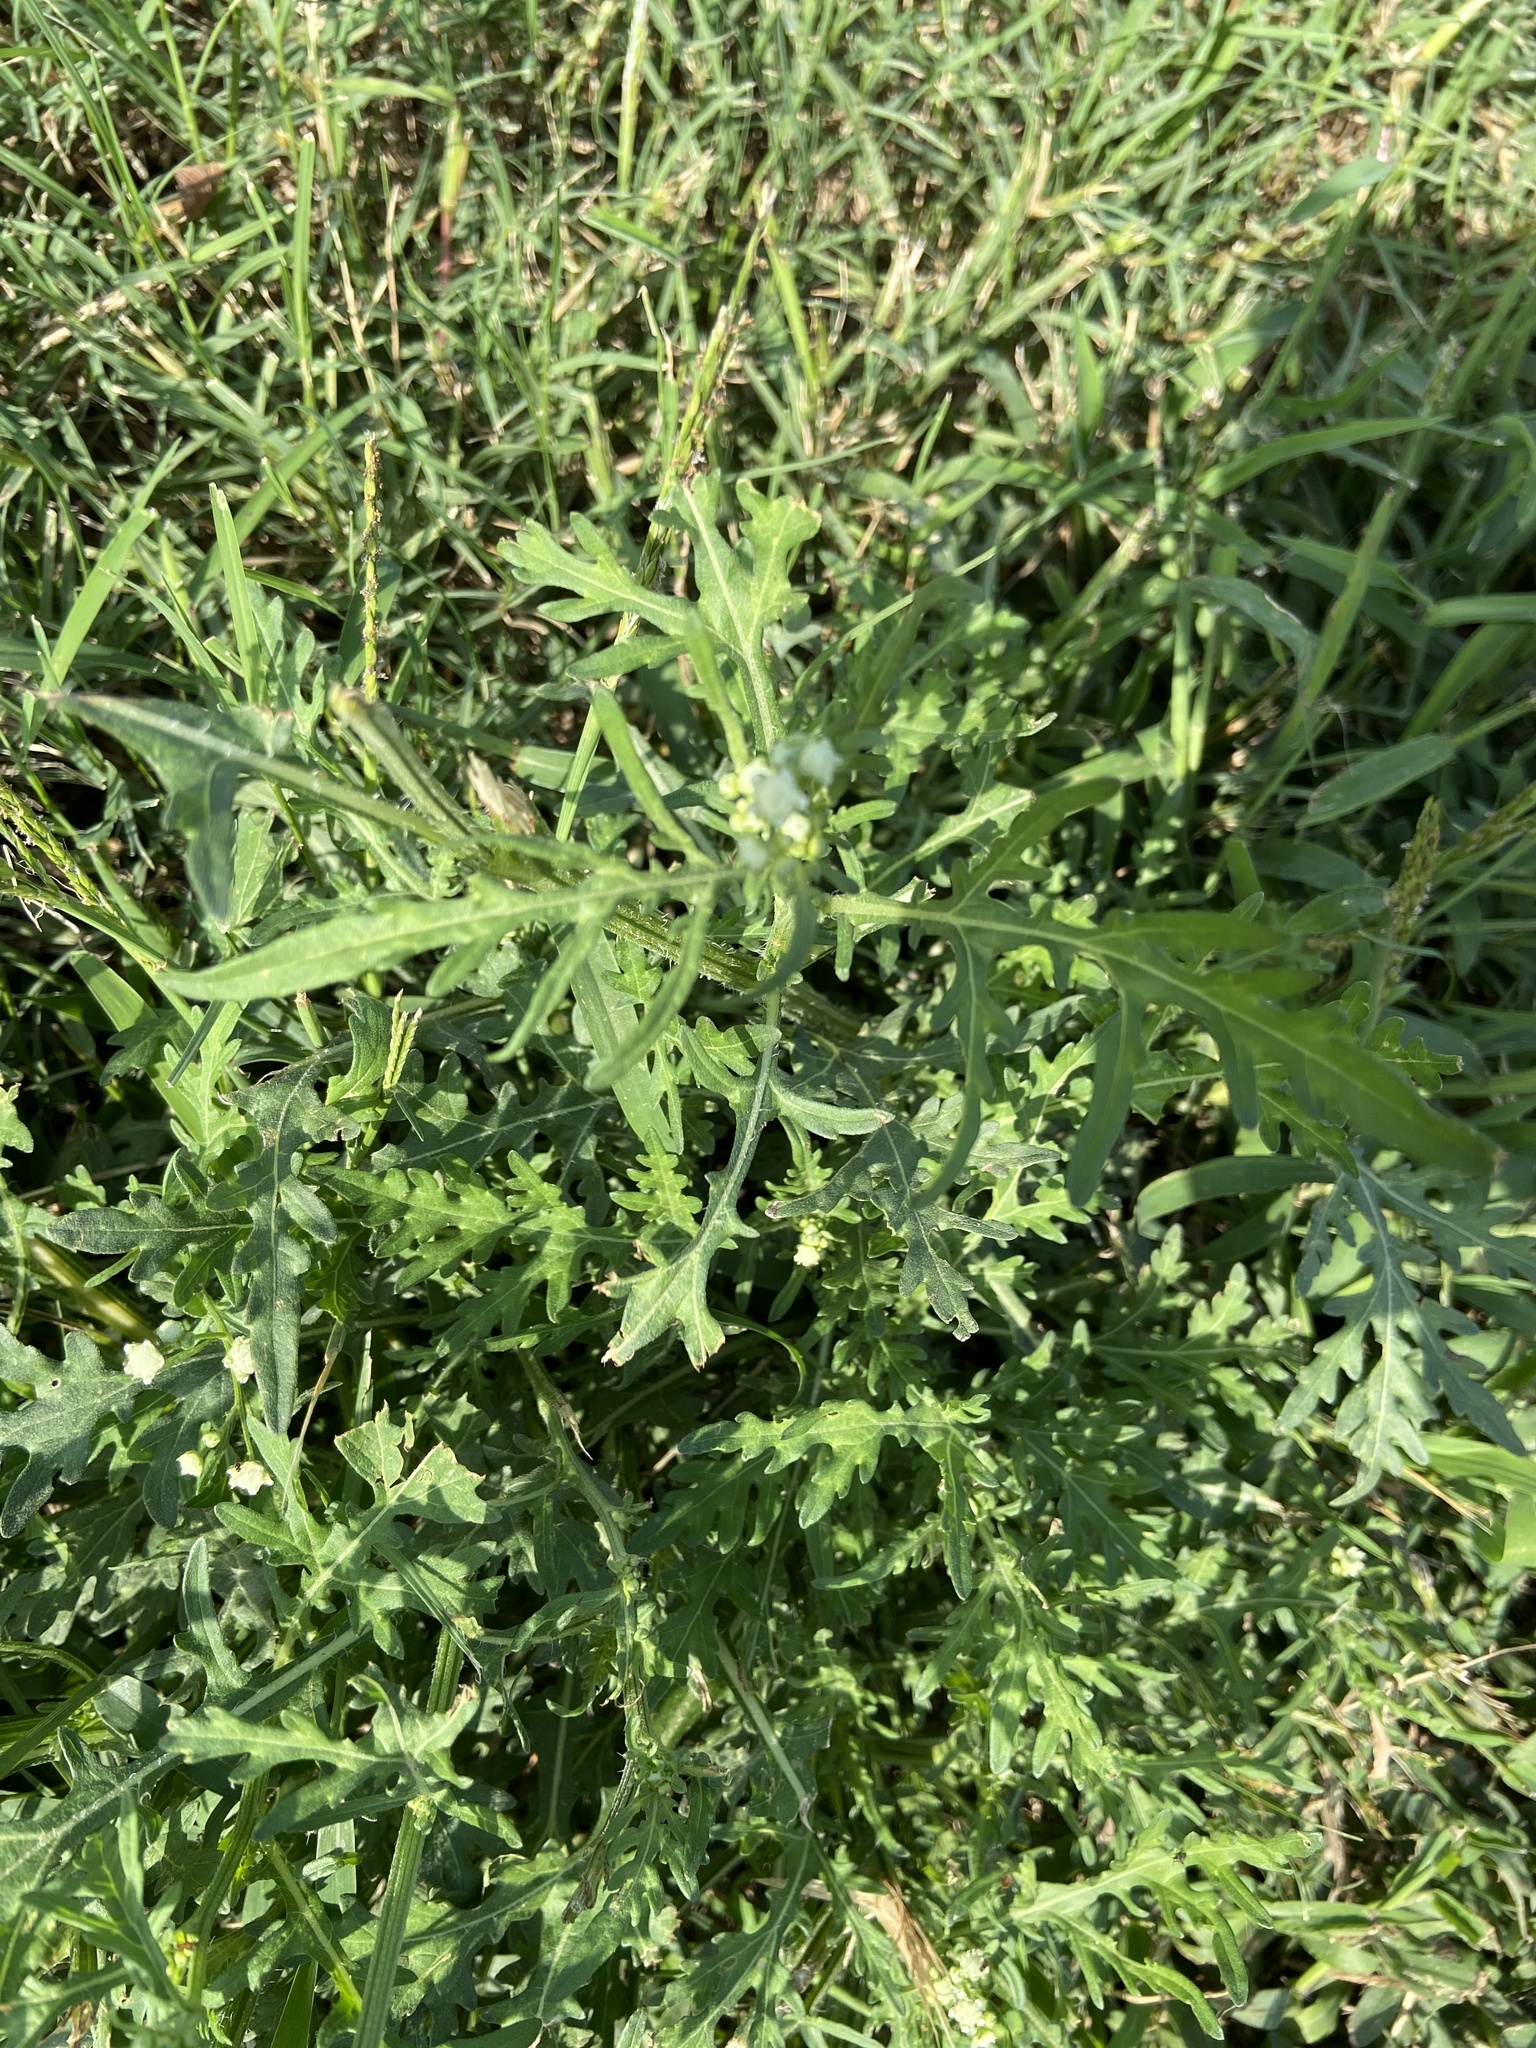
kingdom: Plantae
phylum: Tracheophyta
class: Magnoliopsida
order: Asterales
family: Asteraceae
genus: Parthenium
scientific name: Parthenium hysterophorus
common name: Santa maria feverfew
